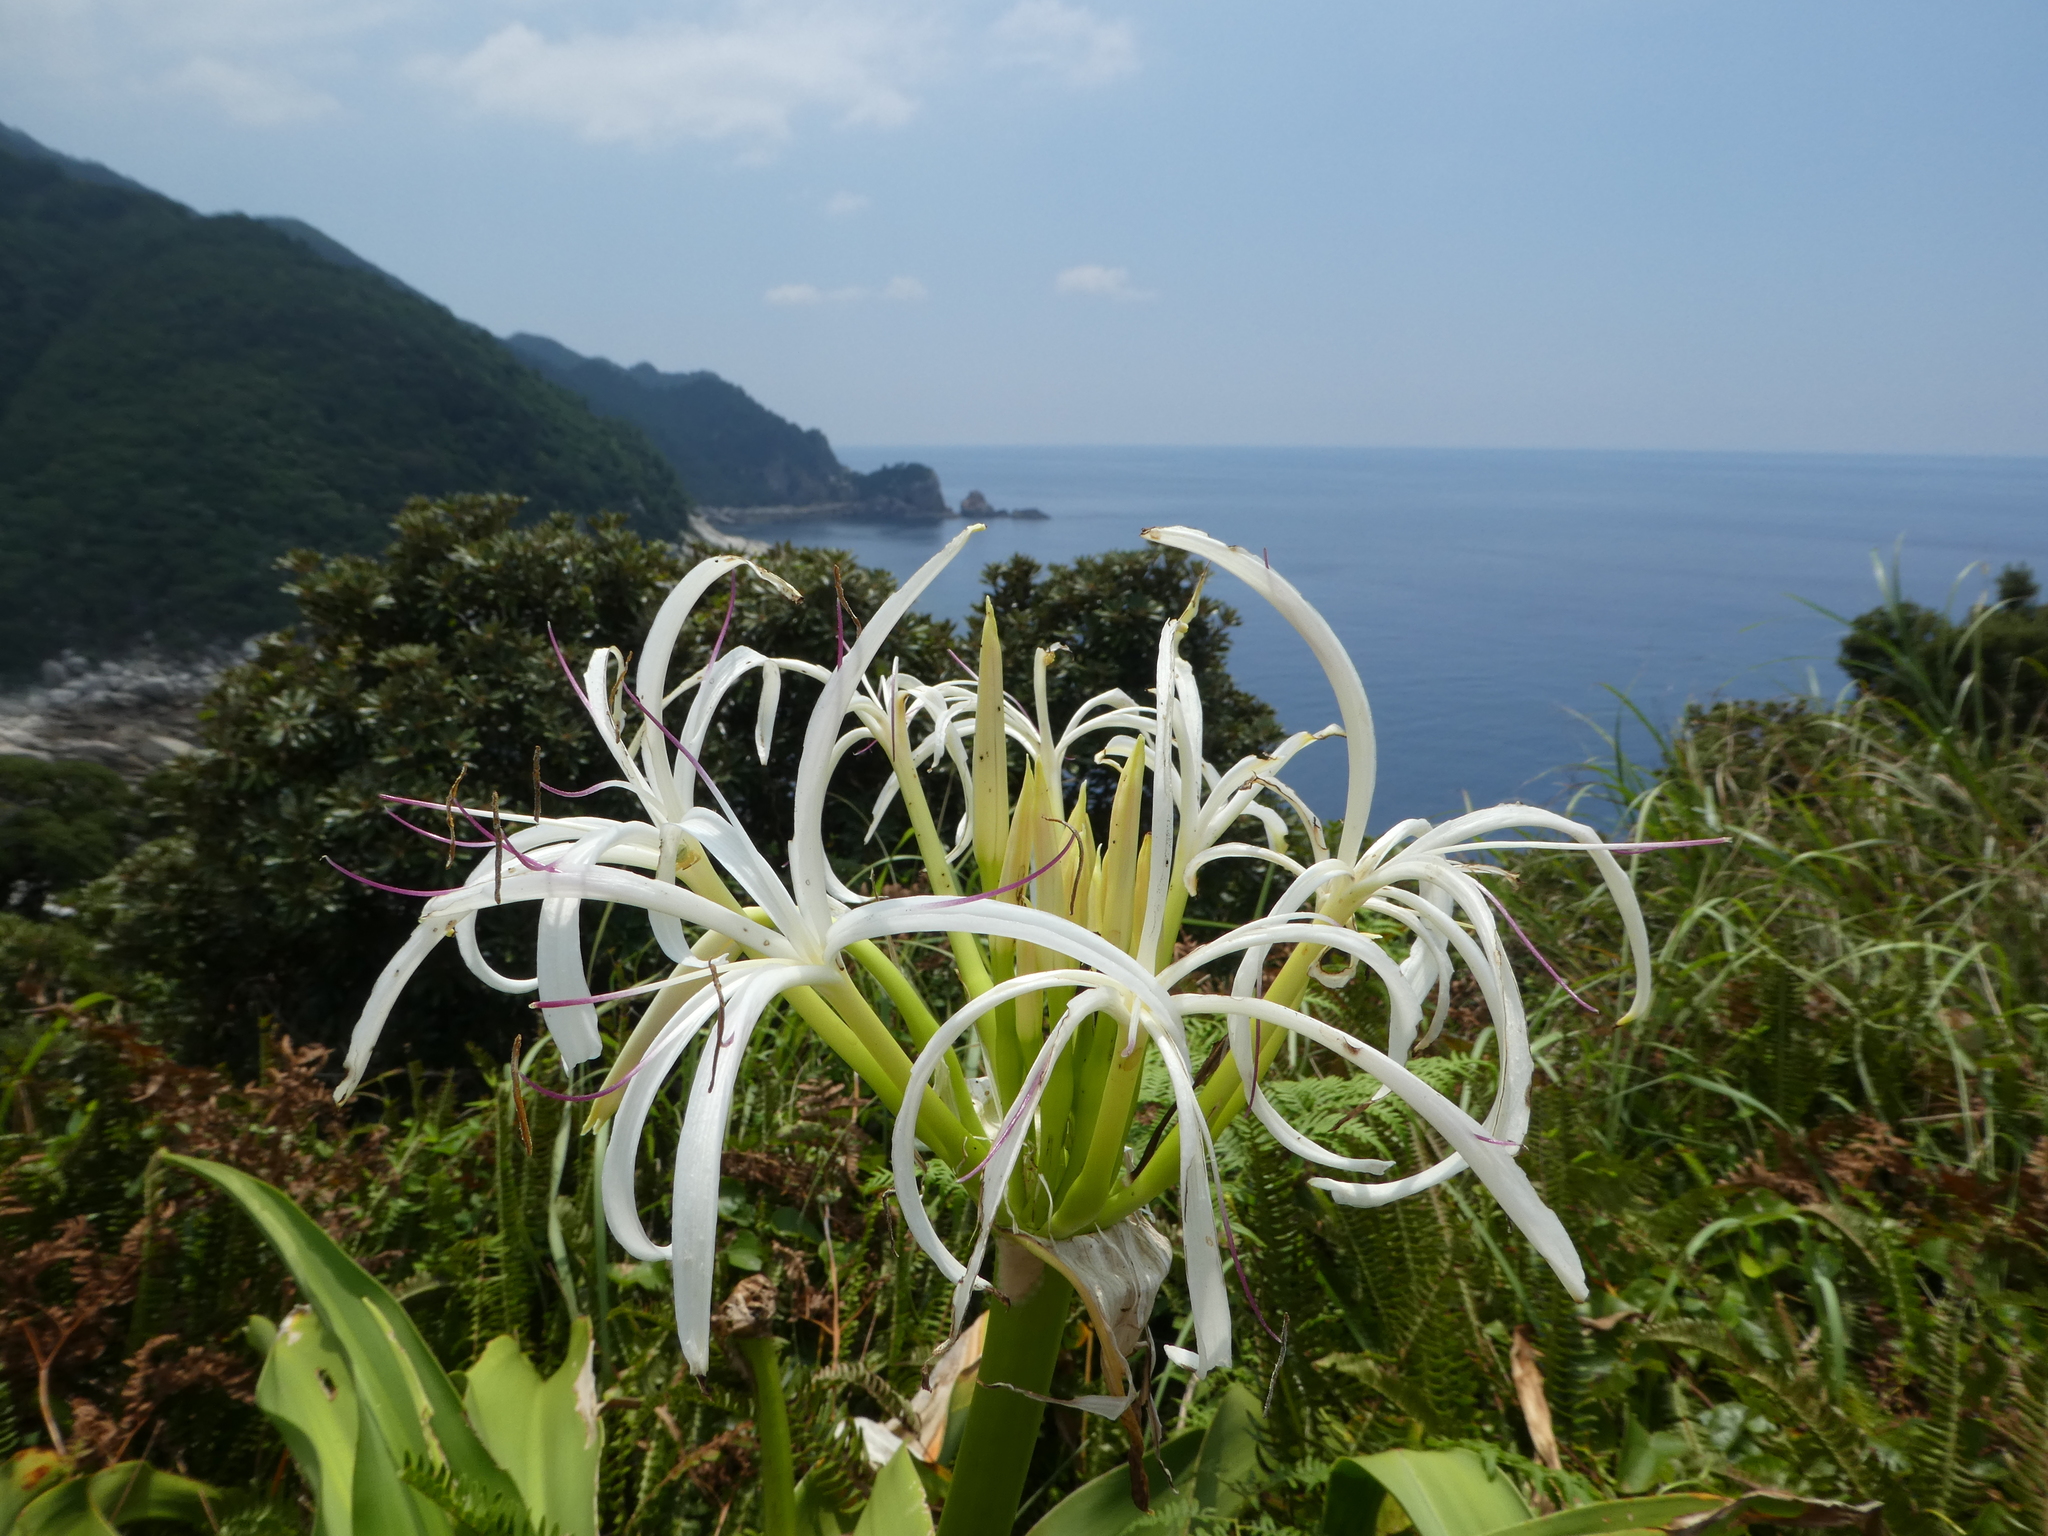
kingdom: Plantae
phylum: Tracheophyta
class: Liliopsida
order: Asparagales
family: Amaryllidaceae
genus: Crinum
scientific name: Crinum asiaticum
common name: Poisonbulb
